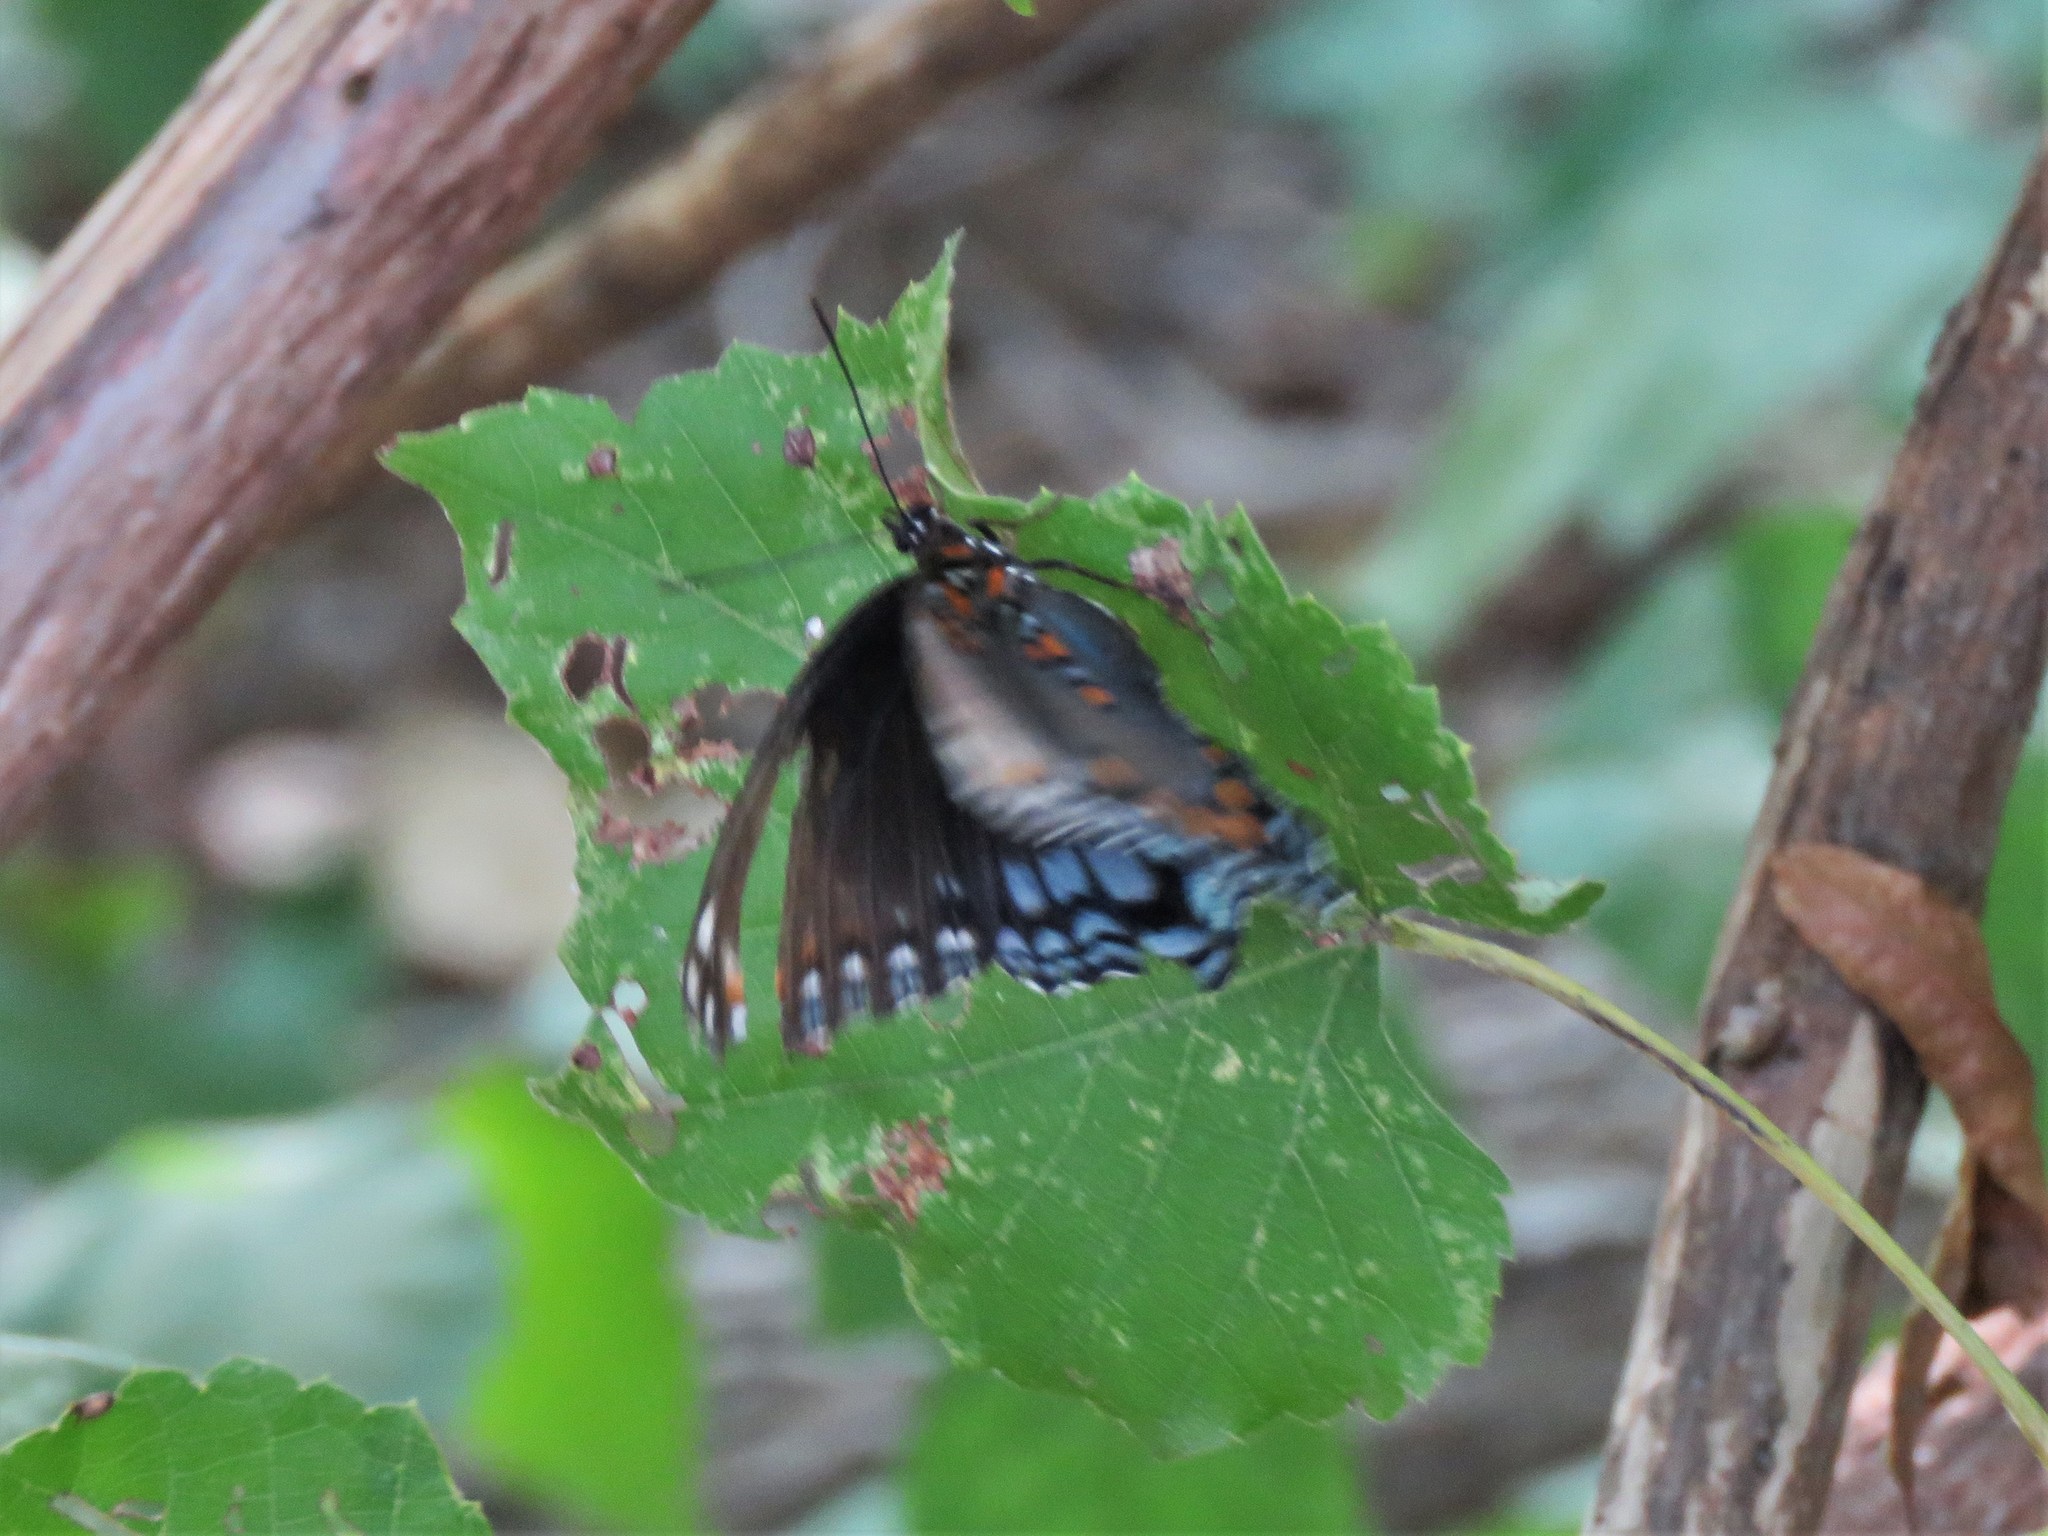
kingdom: Animalia
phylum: Arthropoda
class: Insecta
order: Lepidoptera
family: Nymphalidae
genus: Limenitis
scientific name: Limenitis arthemis
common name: Red-spotted admiral
